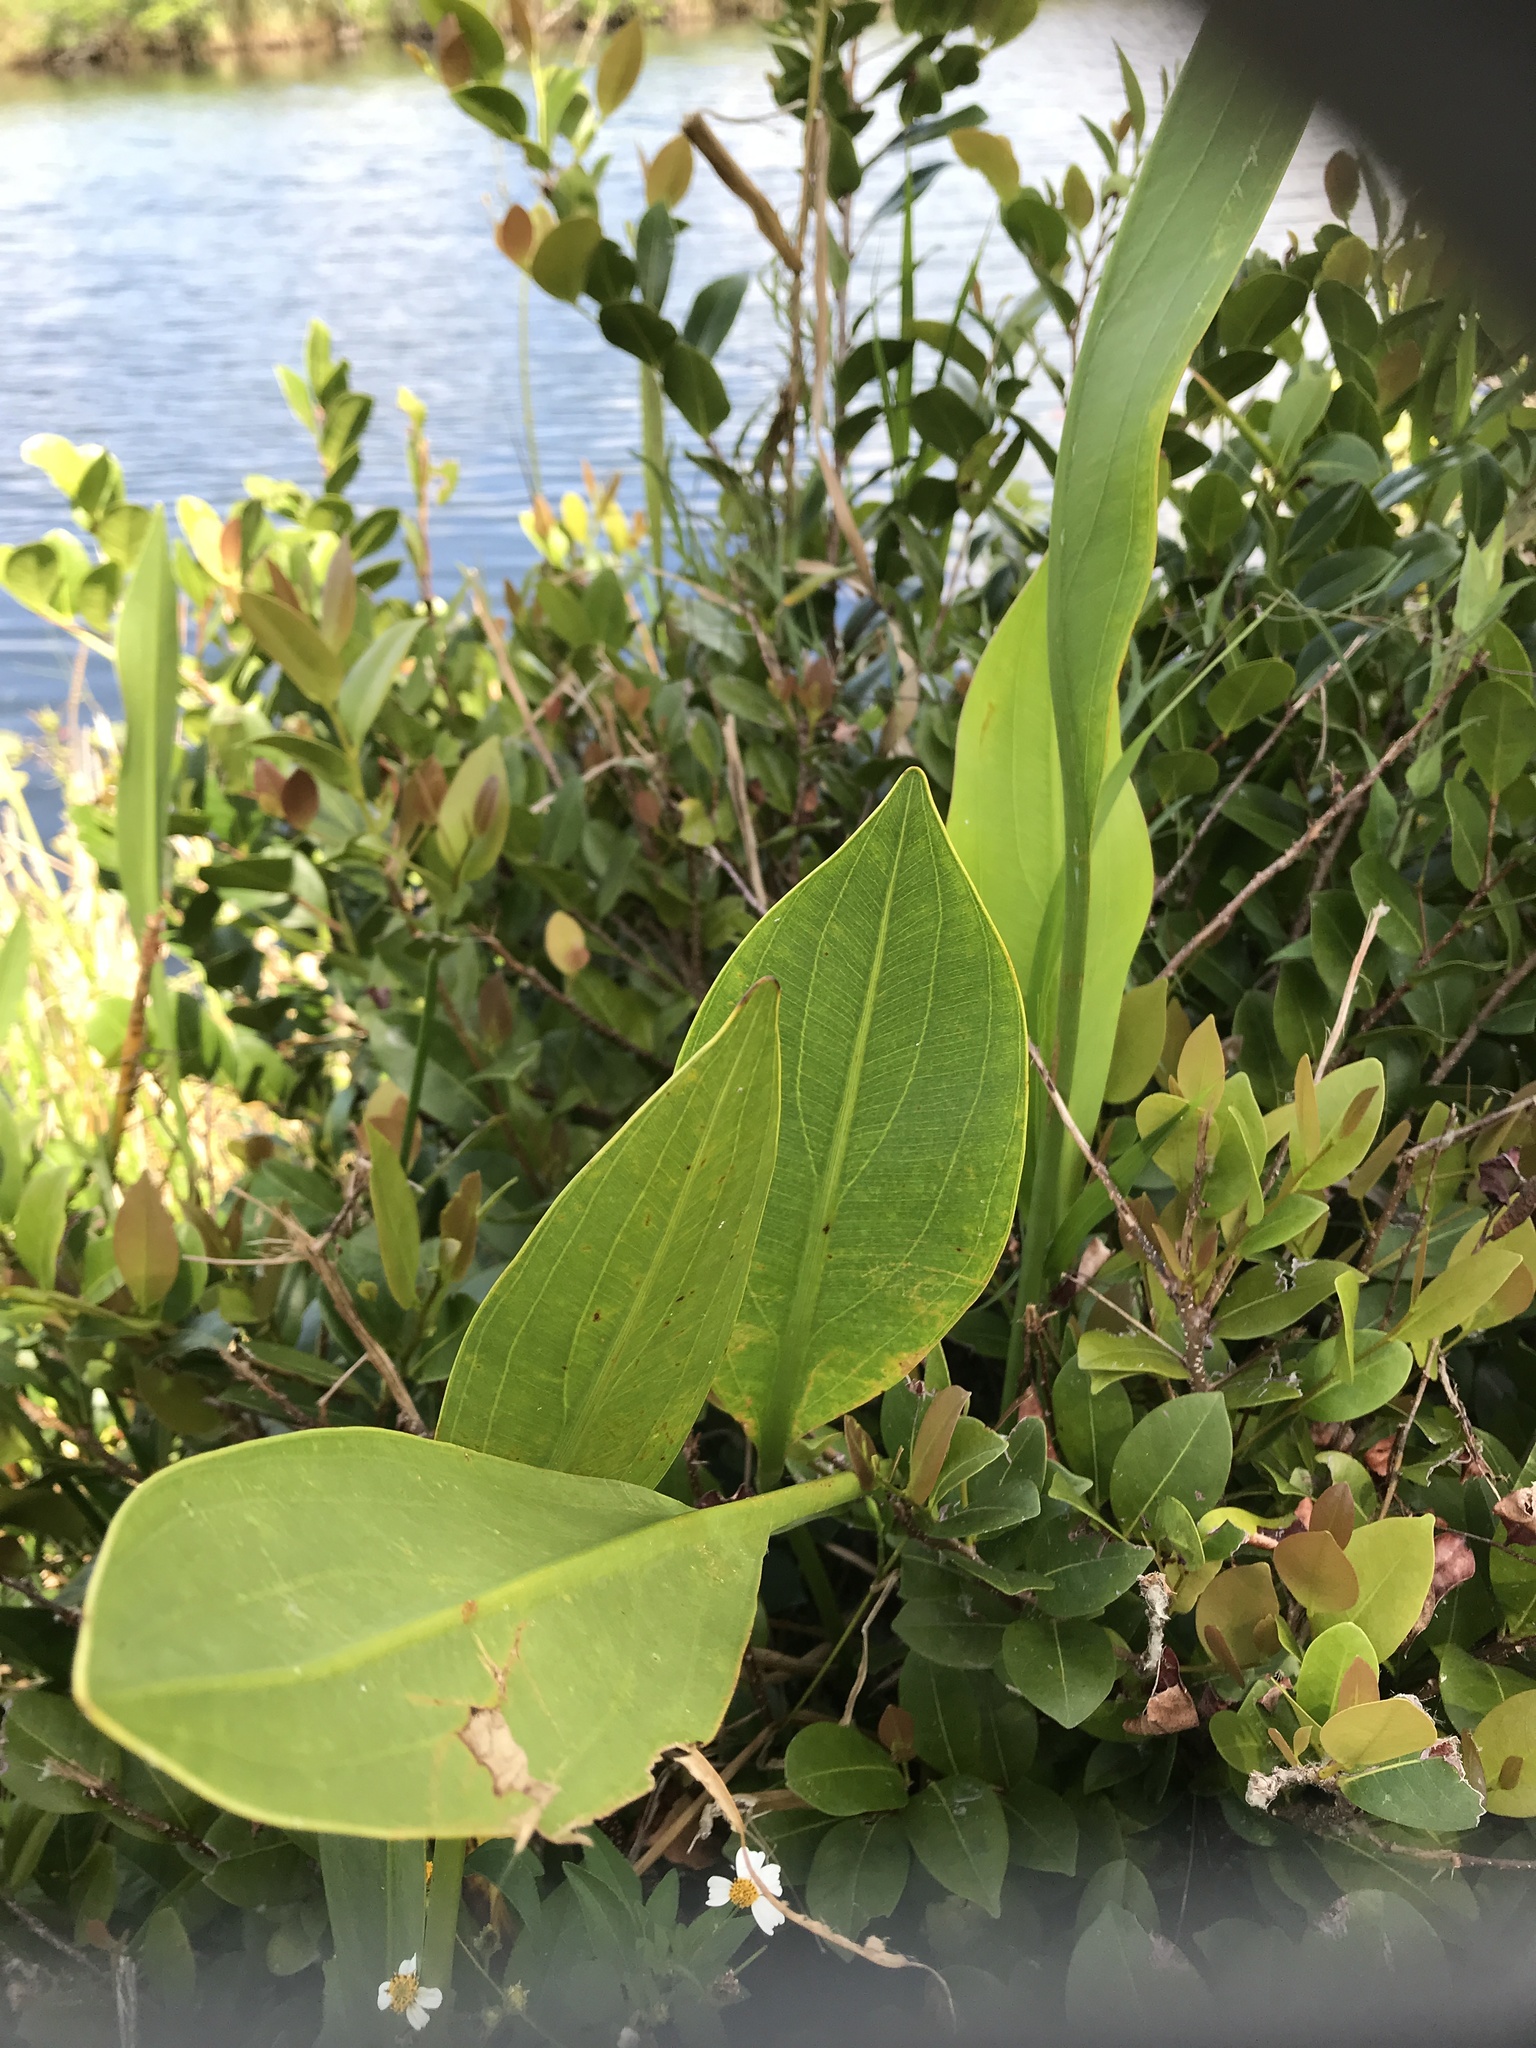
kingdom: Plantae
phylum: Tracheophyta
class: Liliopsida
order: Alismatales
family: Alismataceae
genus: Sagittaria
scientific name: Sagittaria lancifolia
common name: Lance-leaf arrowhead
